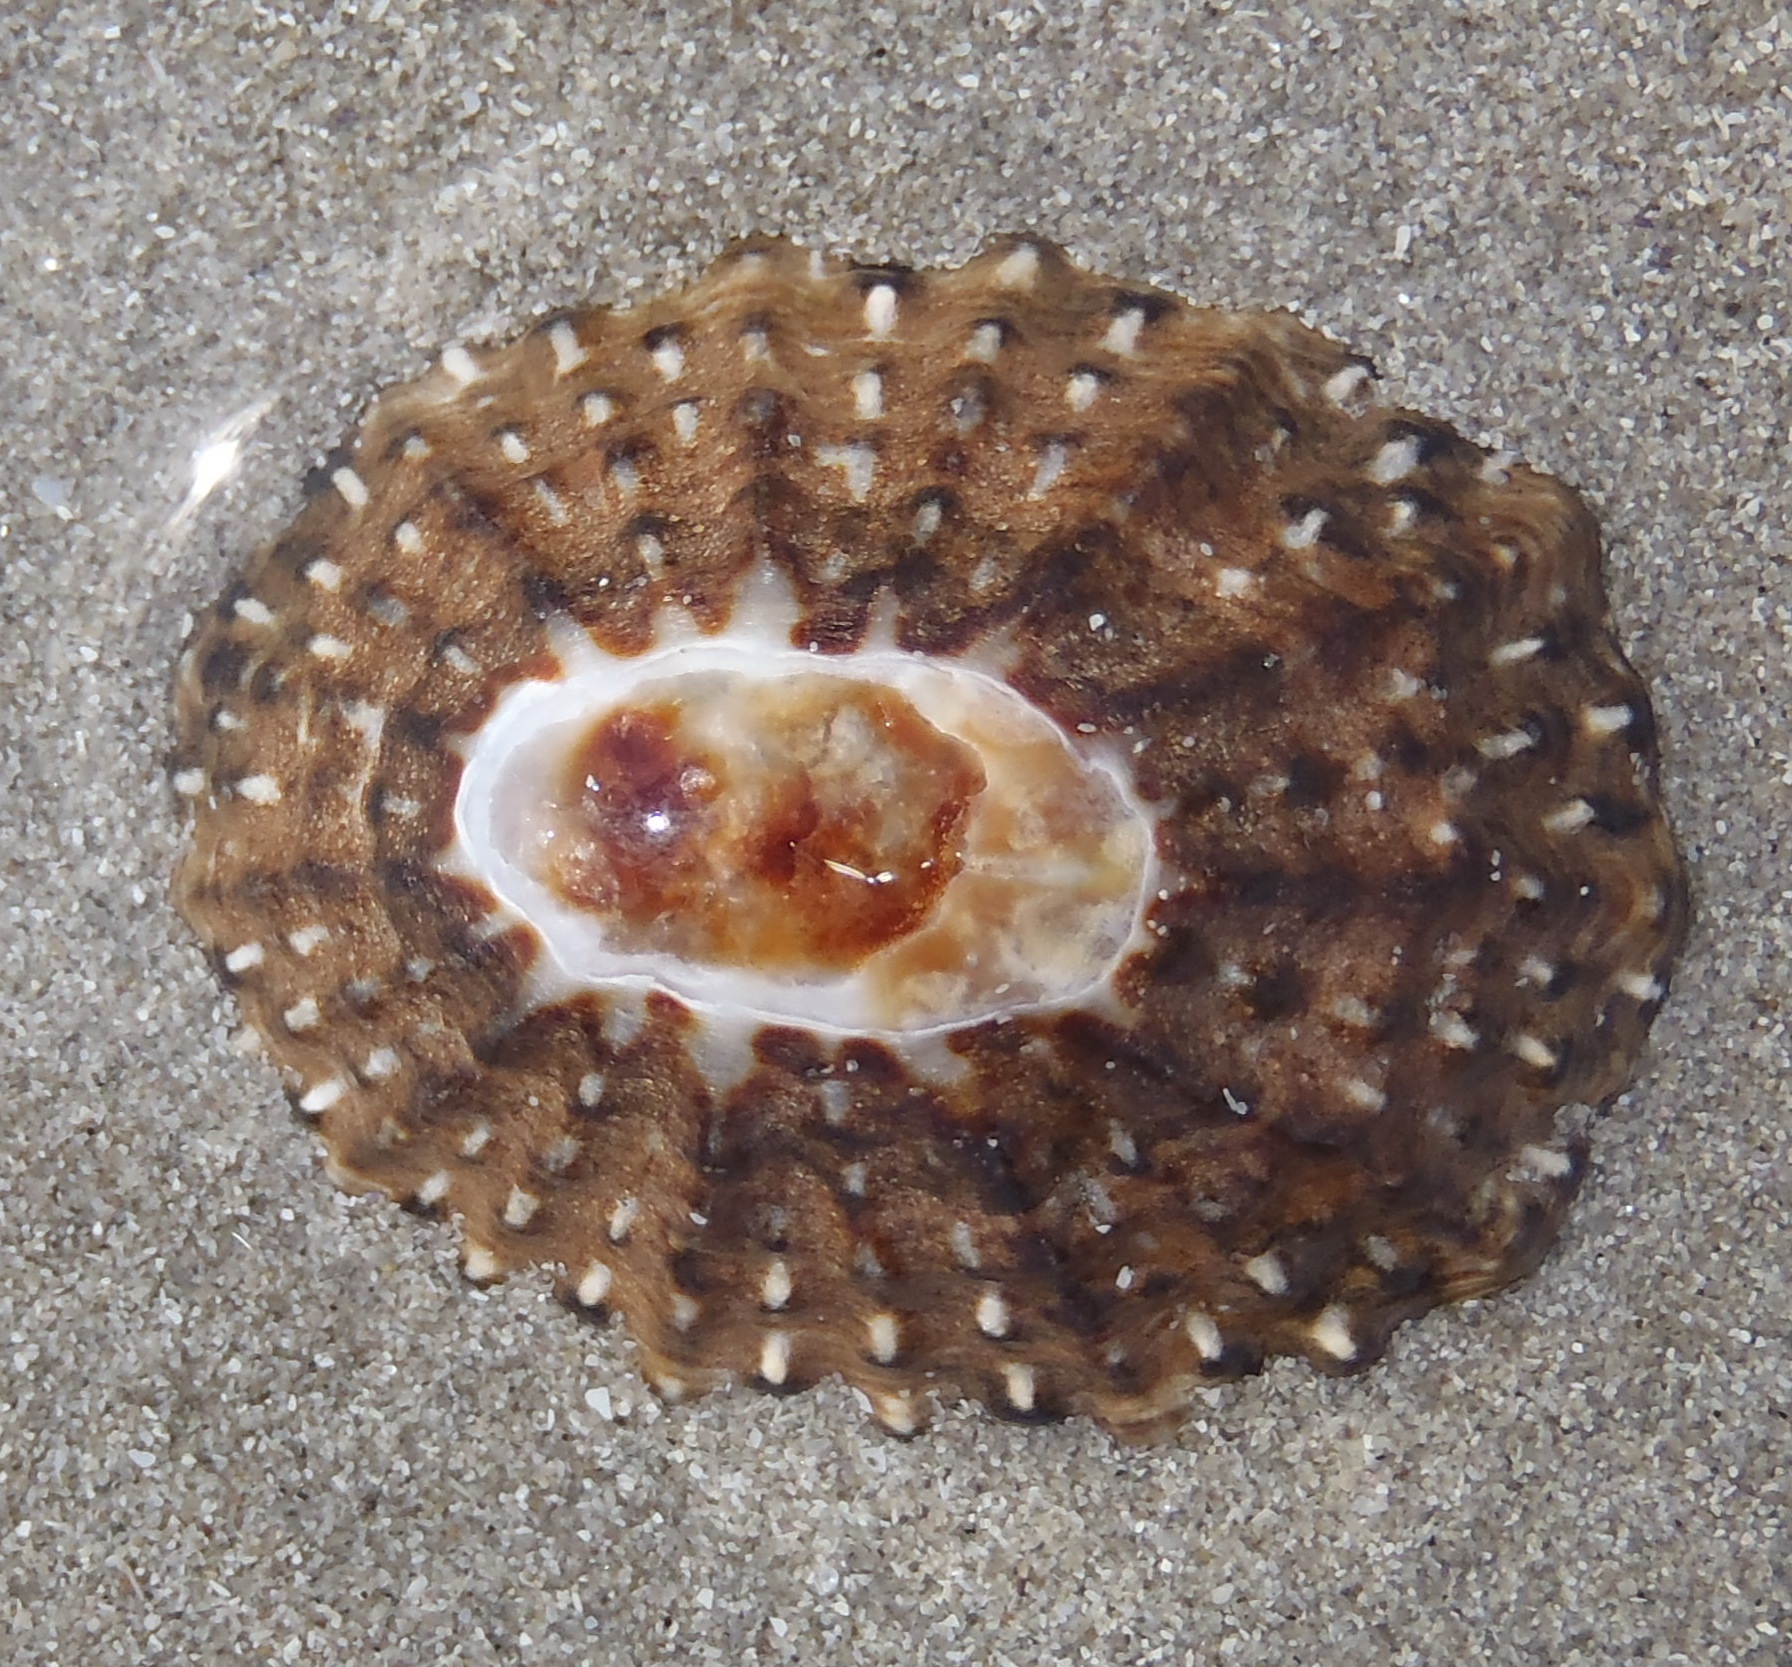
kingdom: Animalia
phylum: Mollusca
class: Gastropoda
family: Patellidae
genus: Scutellastra
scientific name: Scutellastra granularis
